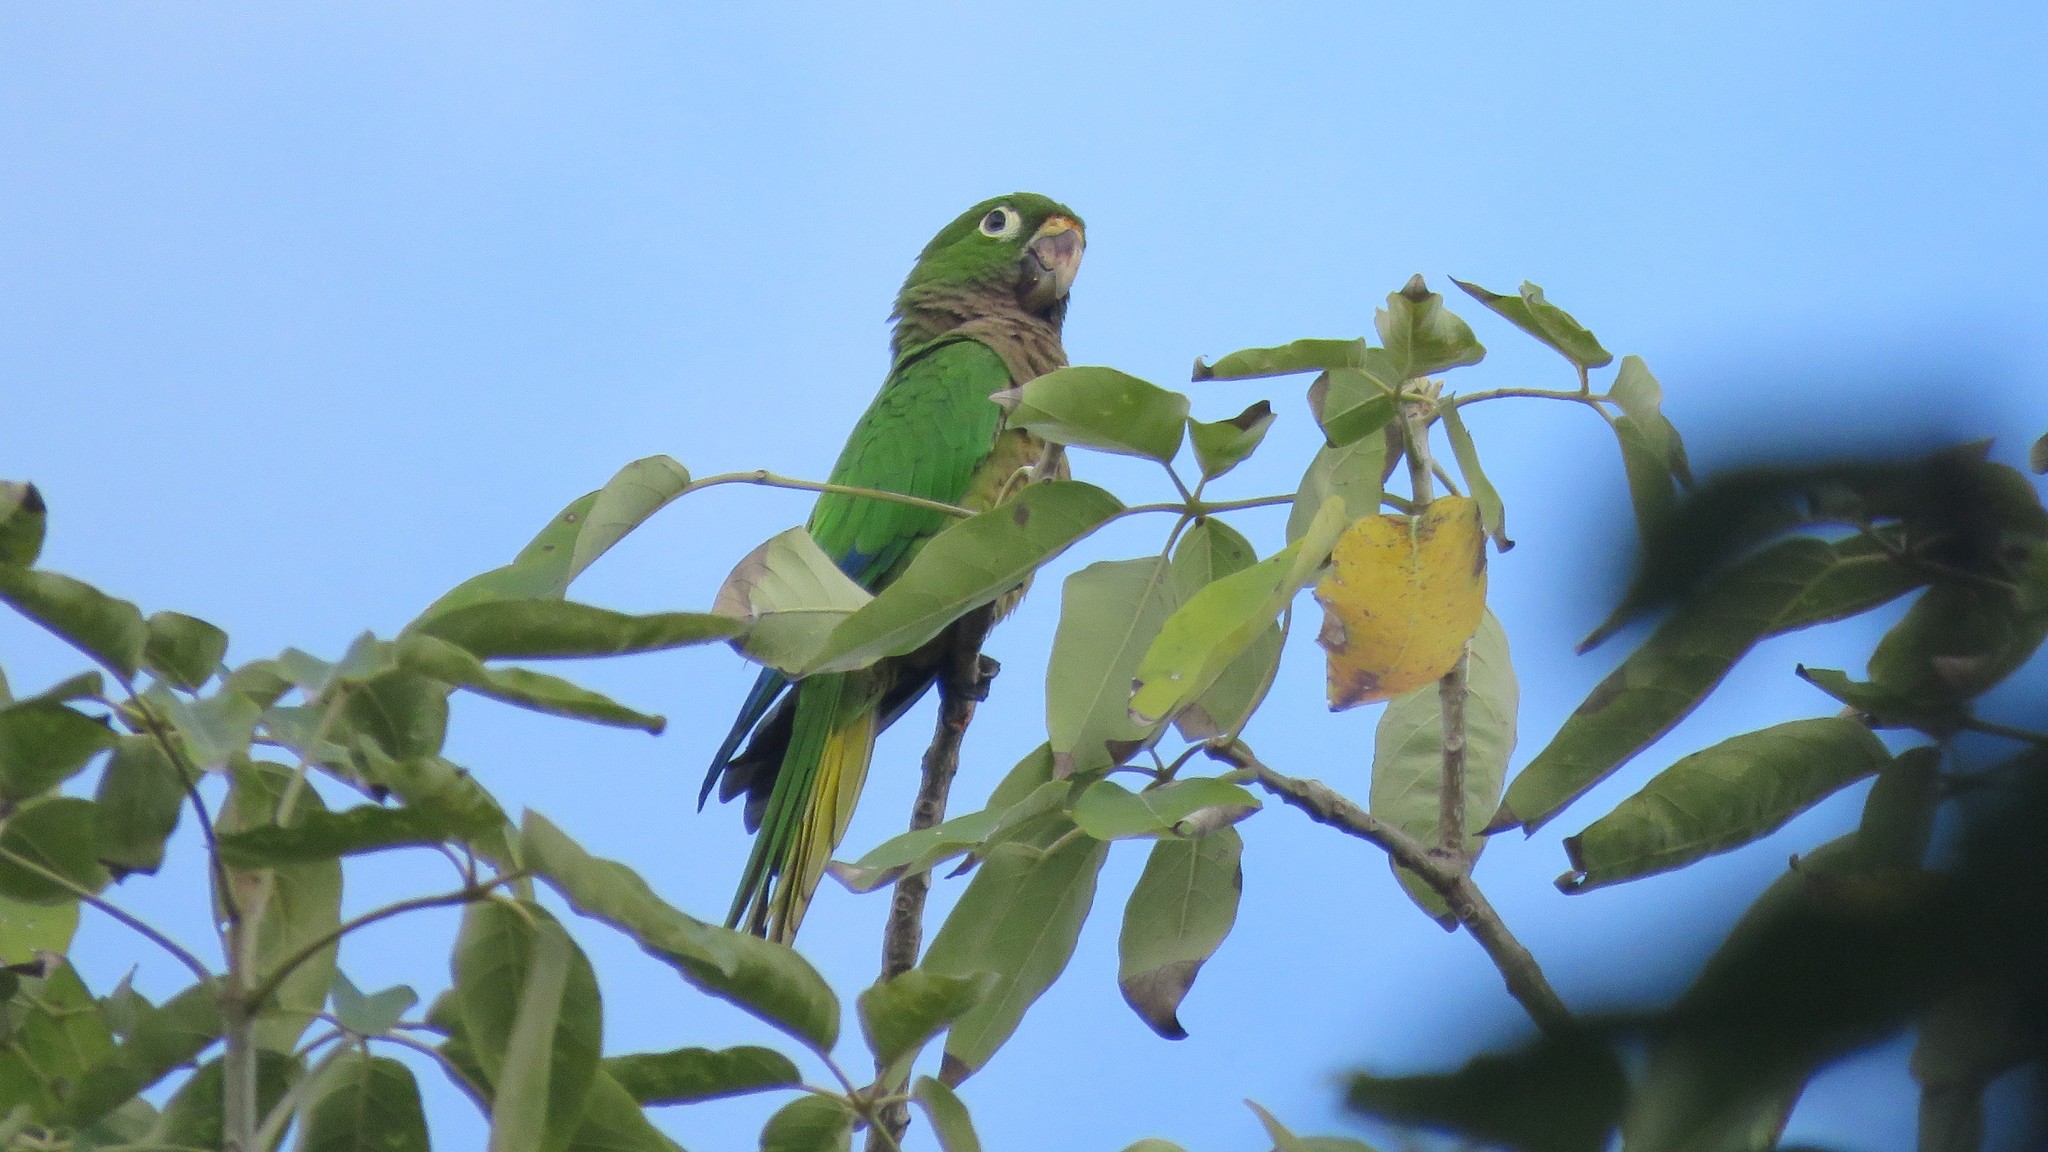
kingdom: Animalia
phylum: Chordata
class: Aves
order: Psittaciformes
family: Psittacidae
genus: Aratinga
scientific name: Aratinga nana
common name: Olive-throated parakeet
